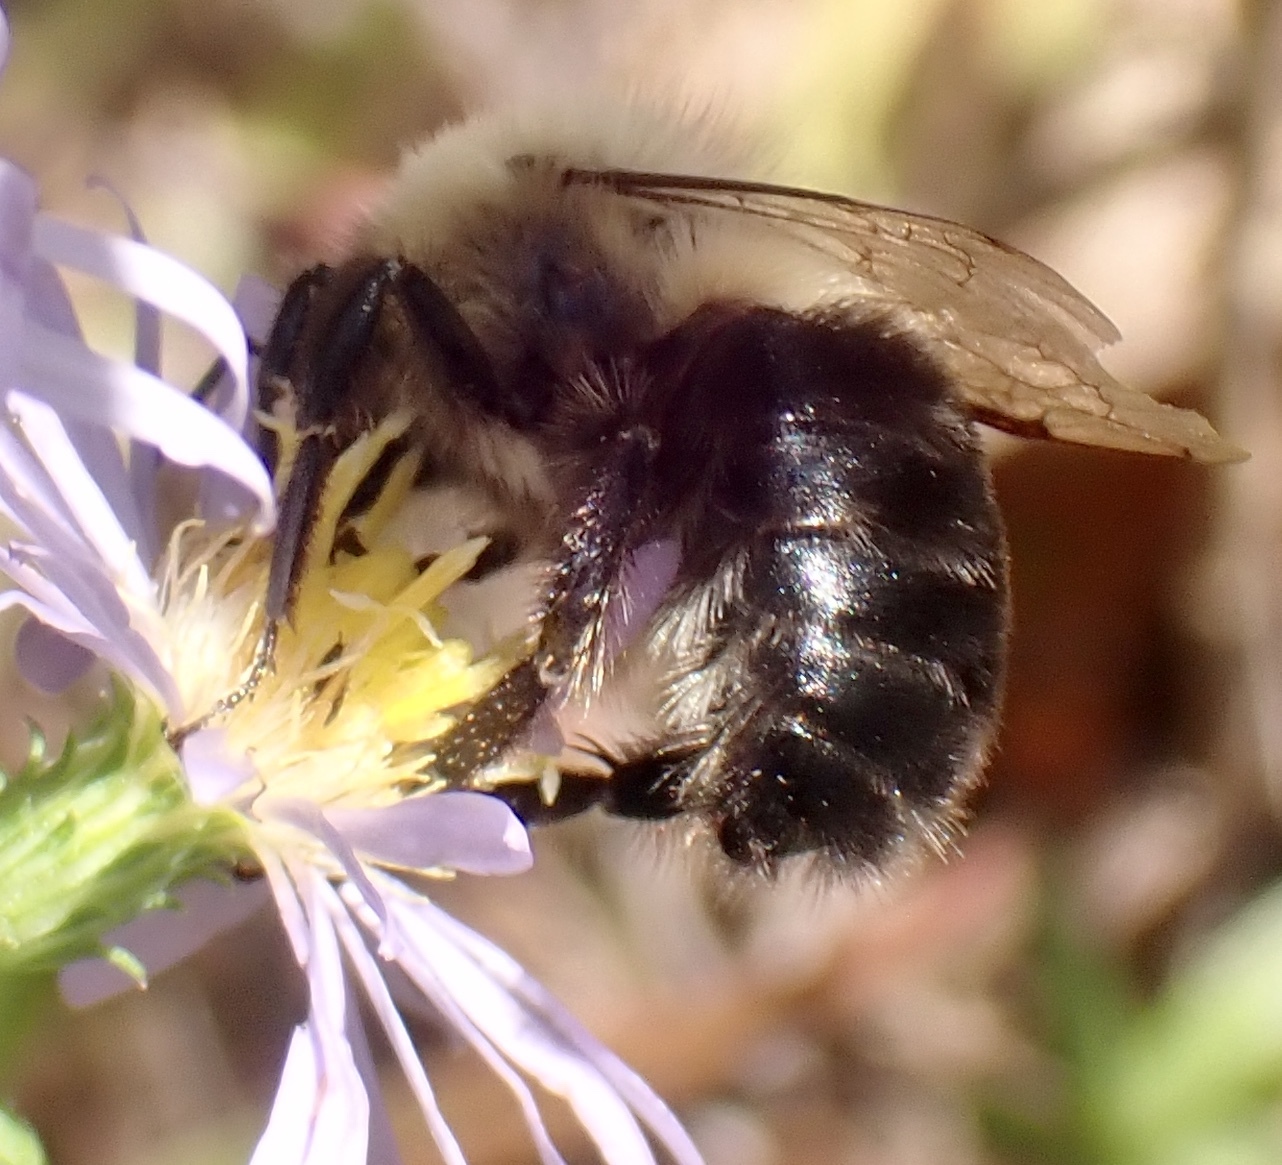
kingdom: Animalia
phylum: Arthropoda
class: Insecta
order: Hymenoptera
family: Apidae
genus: Bombus
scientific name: Bombus impatiens
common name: Common eastern bumble bee
